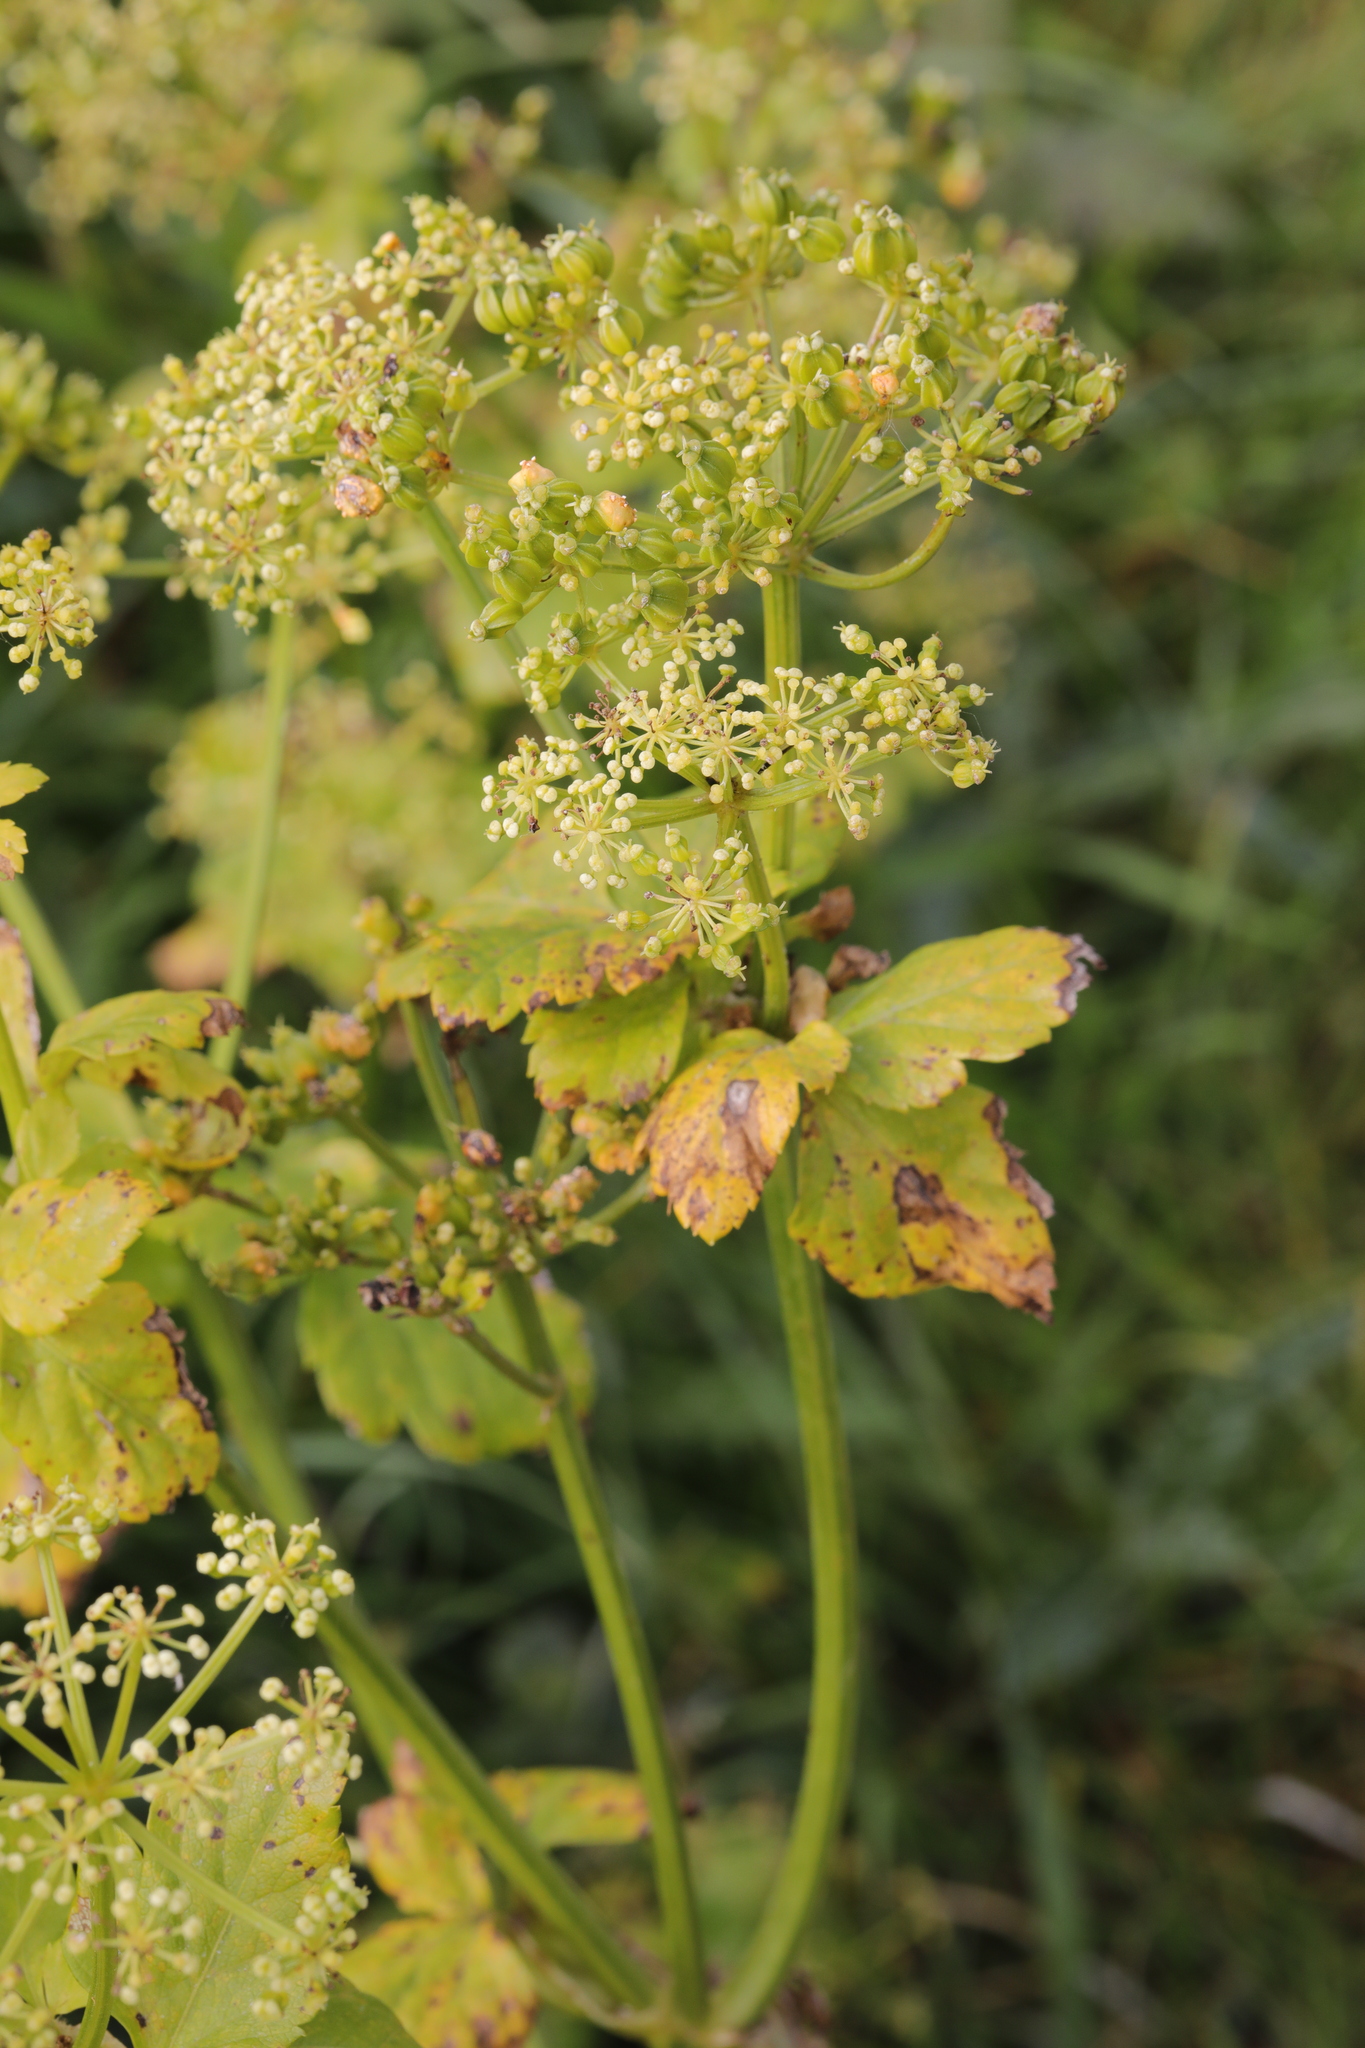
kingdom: Plantae
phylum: Tracheophyta
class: Magnoliopsida
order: Apiales
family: Apiaceae
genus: Smyrnium
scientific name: Smyrnium olusatrum
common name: Alexanders
